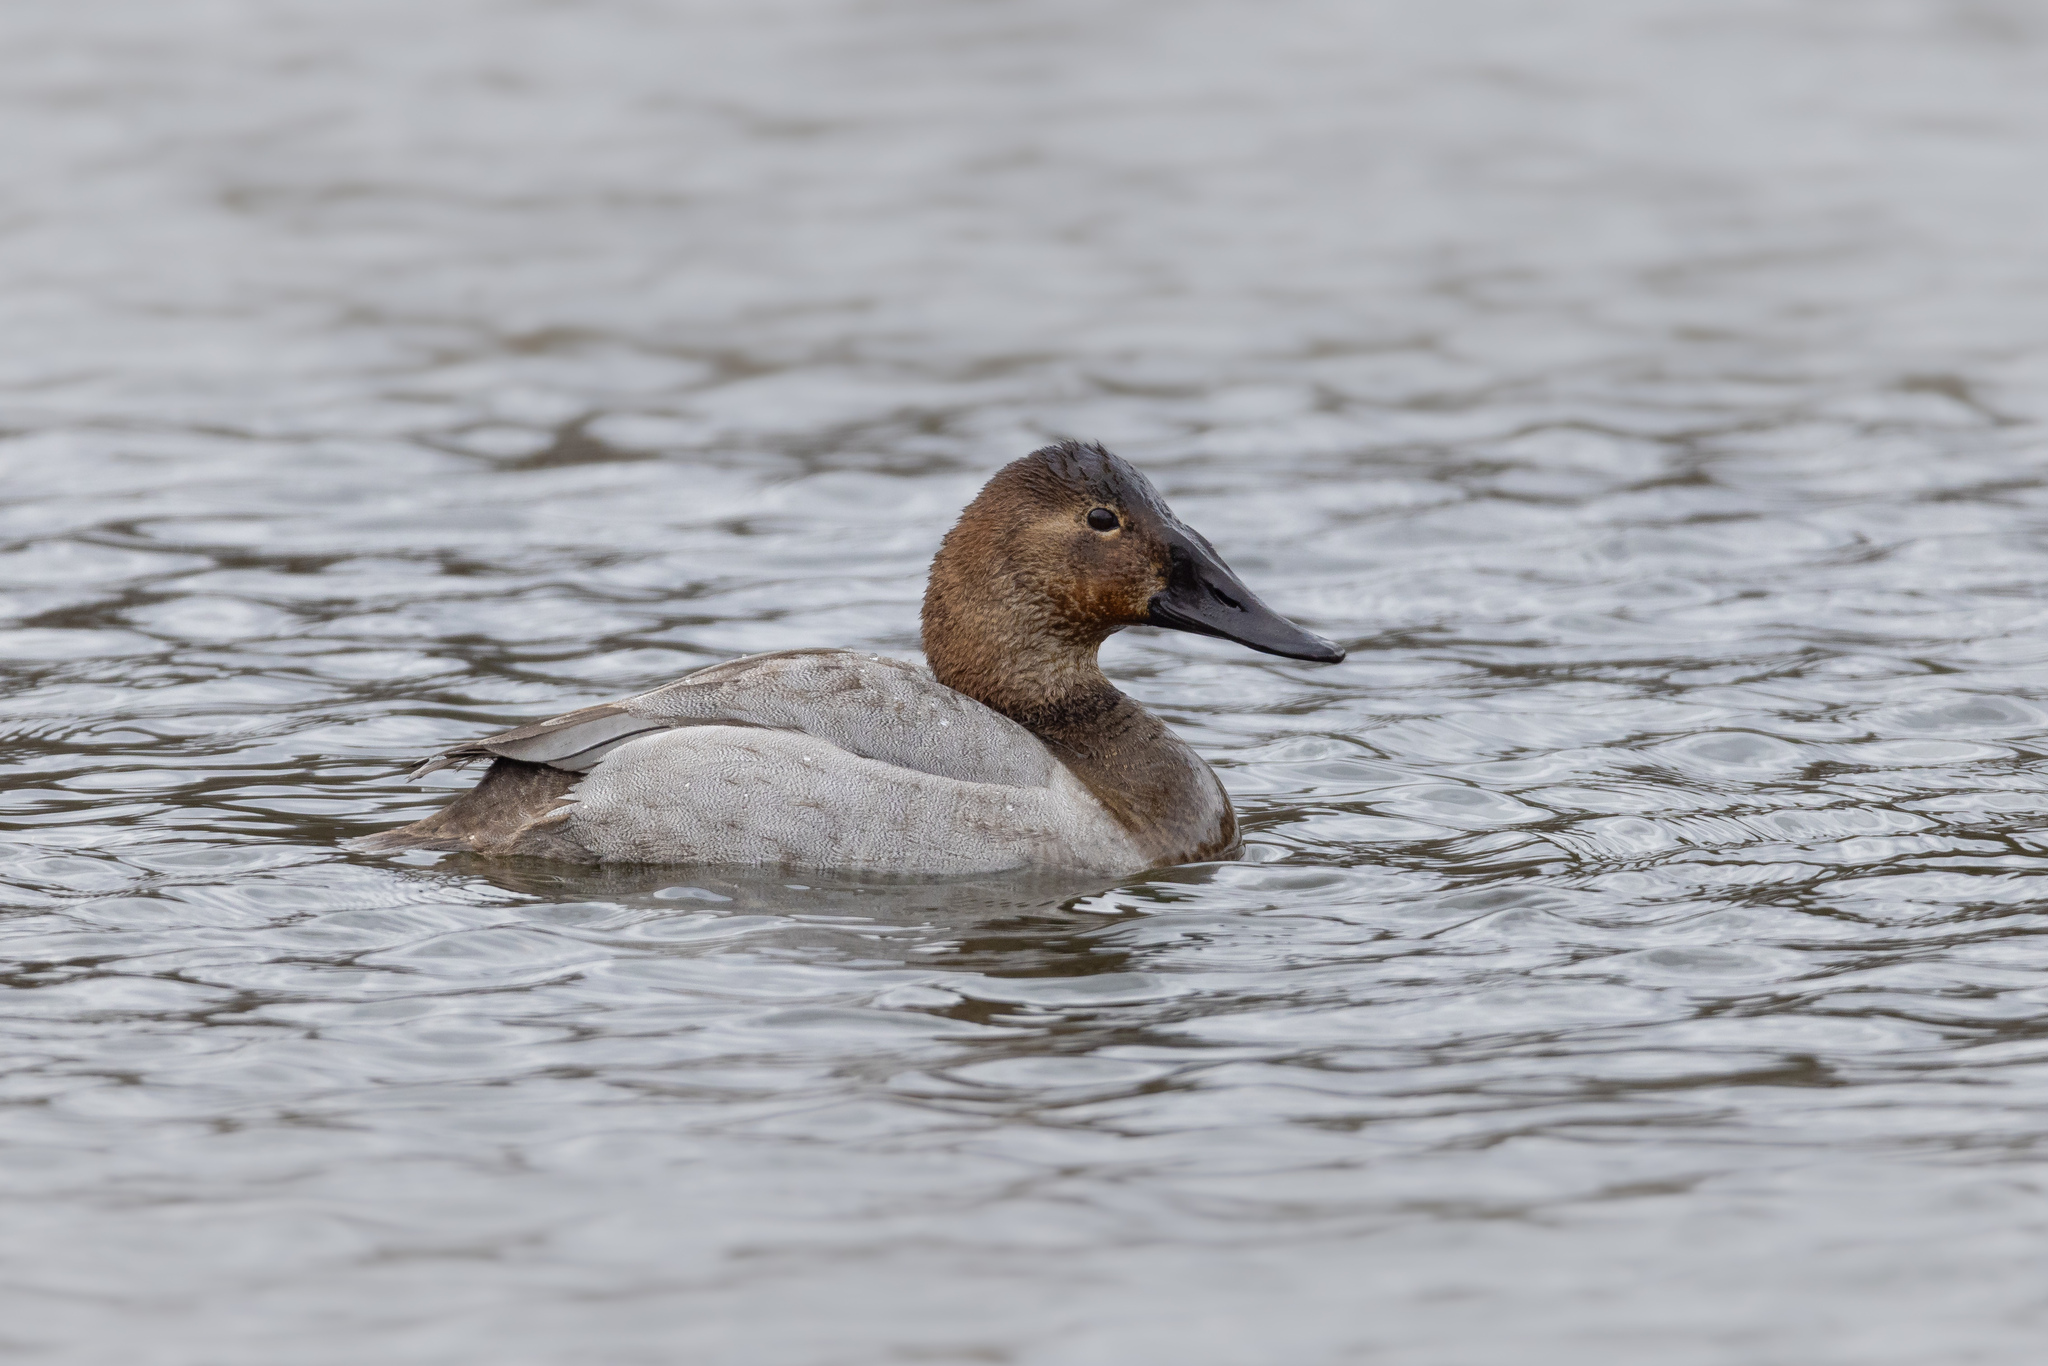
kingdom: Animalia
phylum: Chordata
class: Aves
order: Anseriformes
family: Anatidae
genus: Aythya
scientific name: Aythya valisineria
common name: Canvasback
